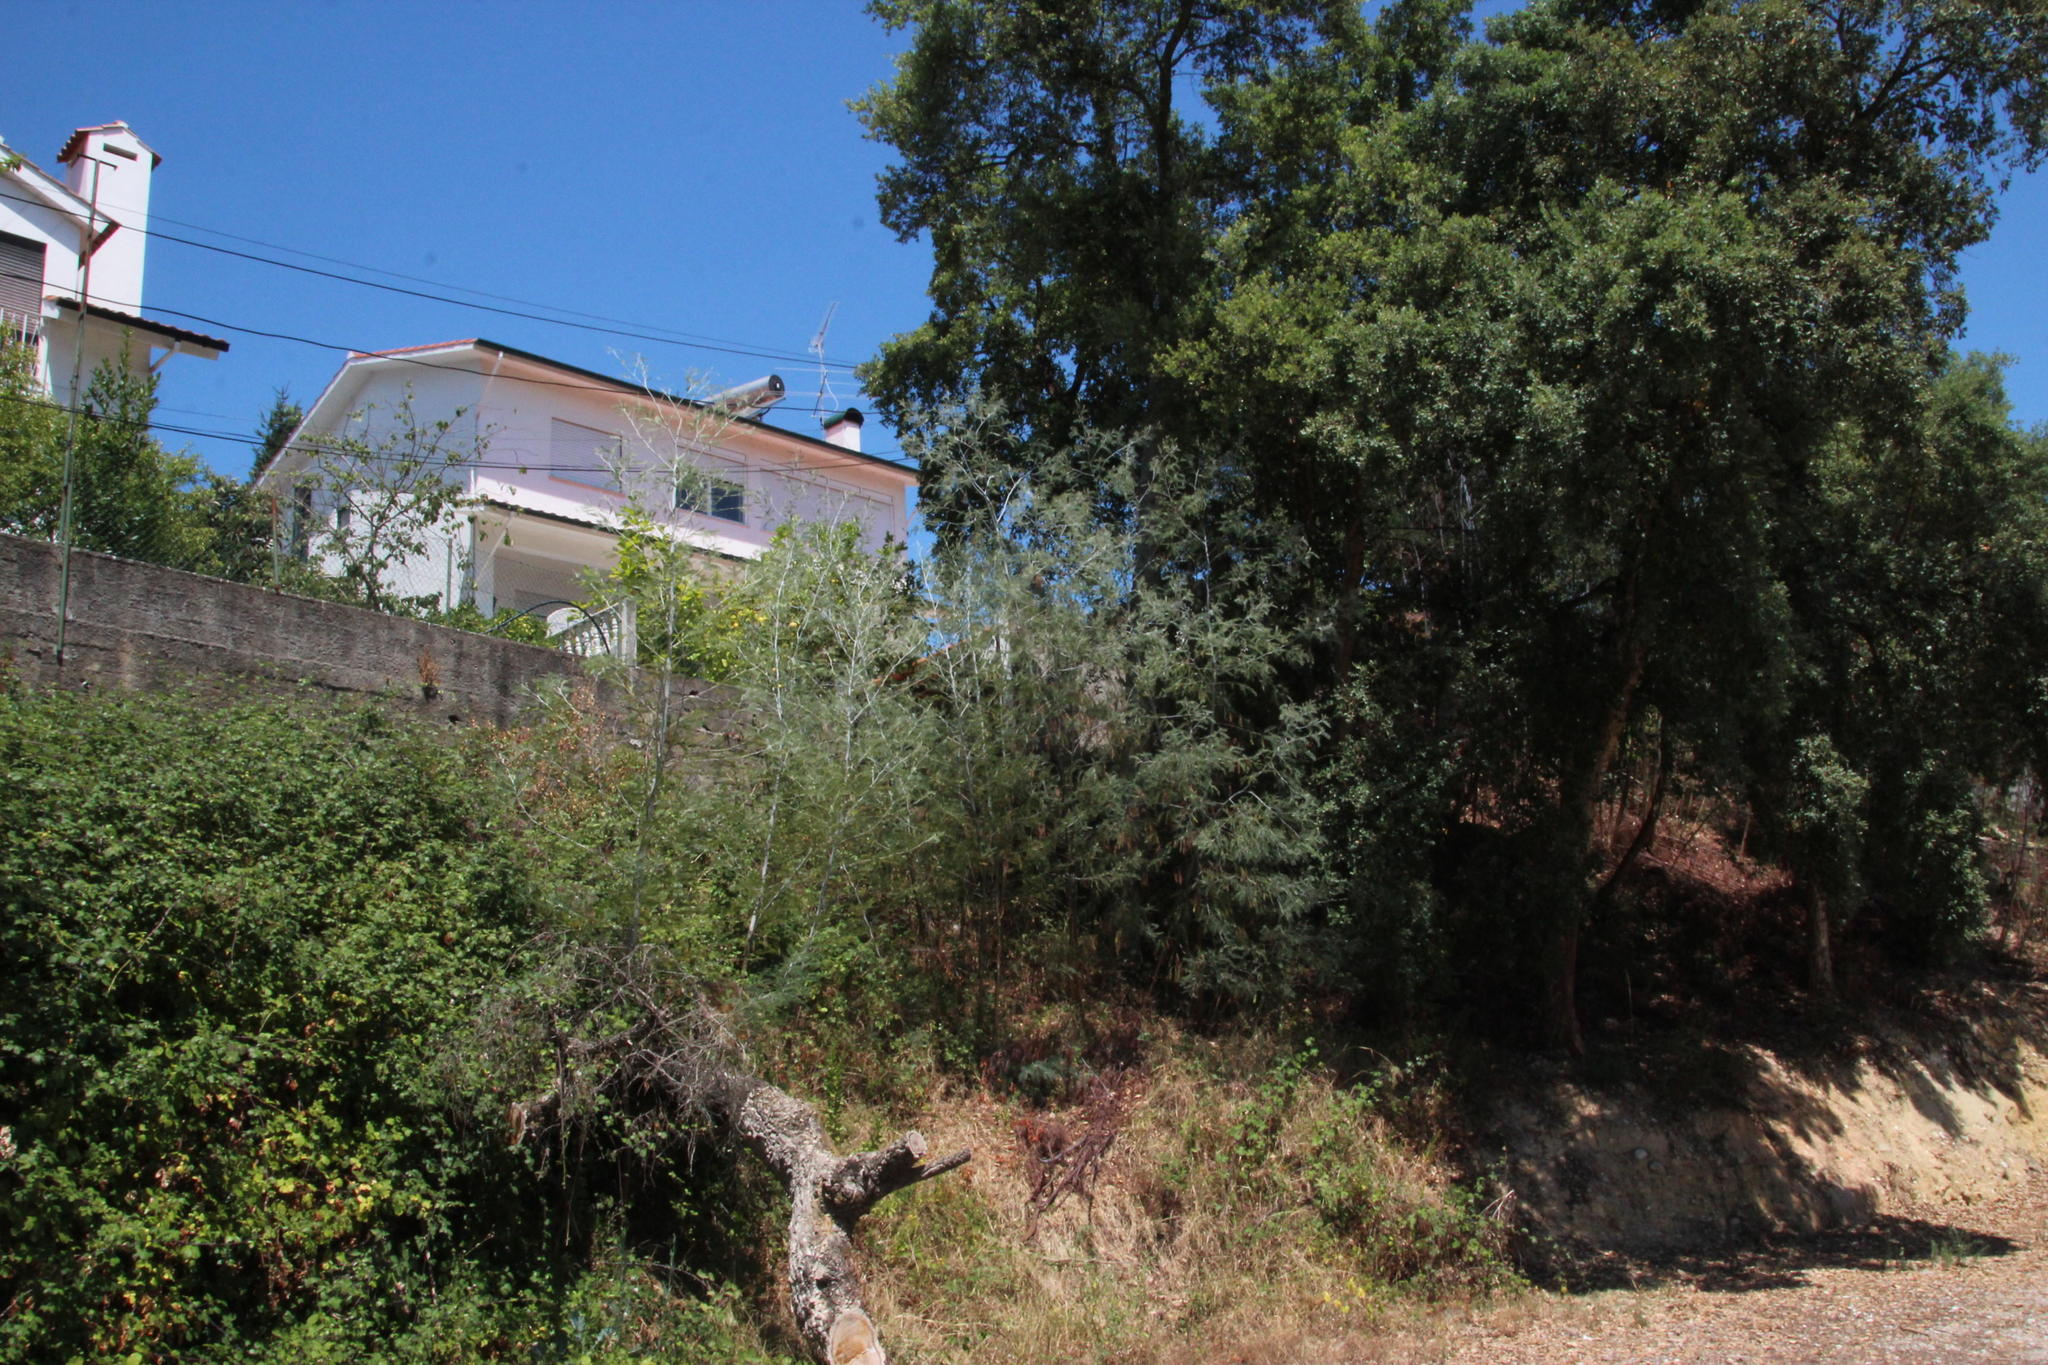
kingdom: Plantae
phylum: Tracheophyta
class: Magnoliopsida
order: Fabales
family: Fabaceae
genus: Acacia
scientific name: Acacia dealbata
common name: Silver wattle
